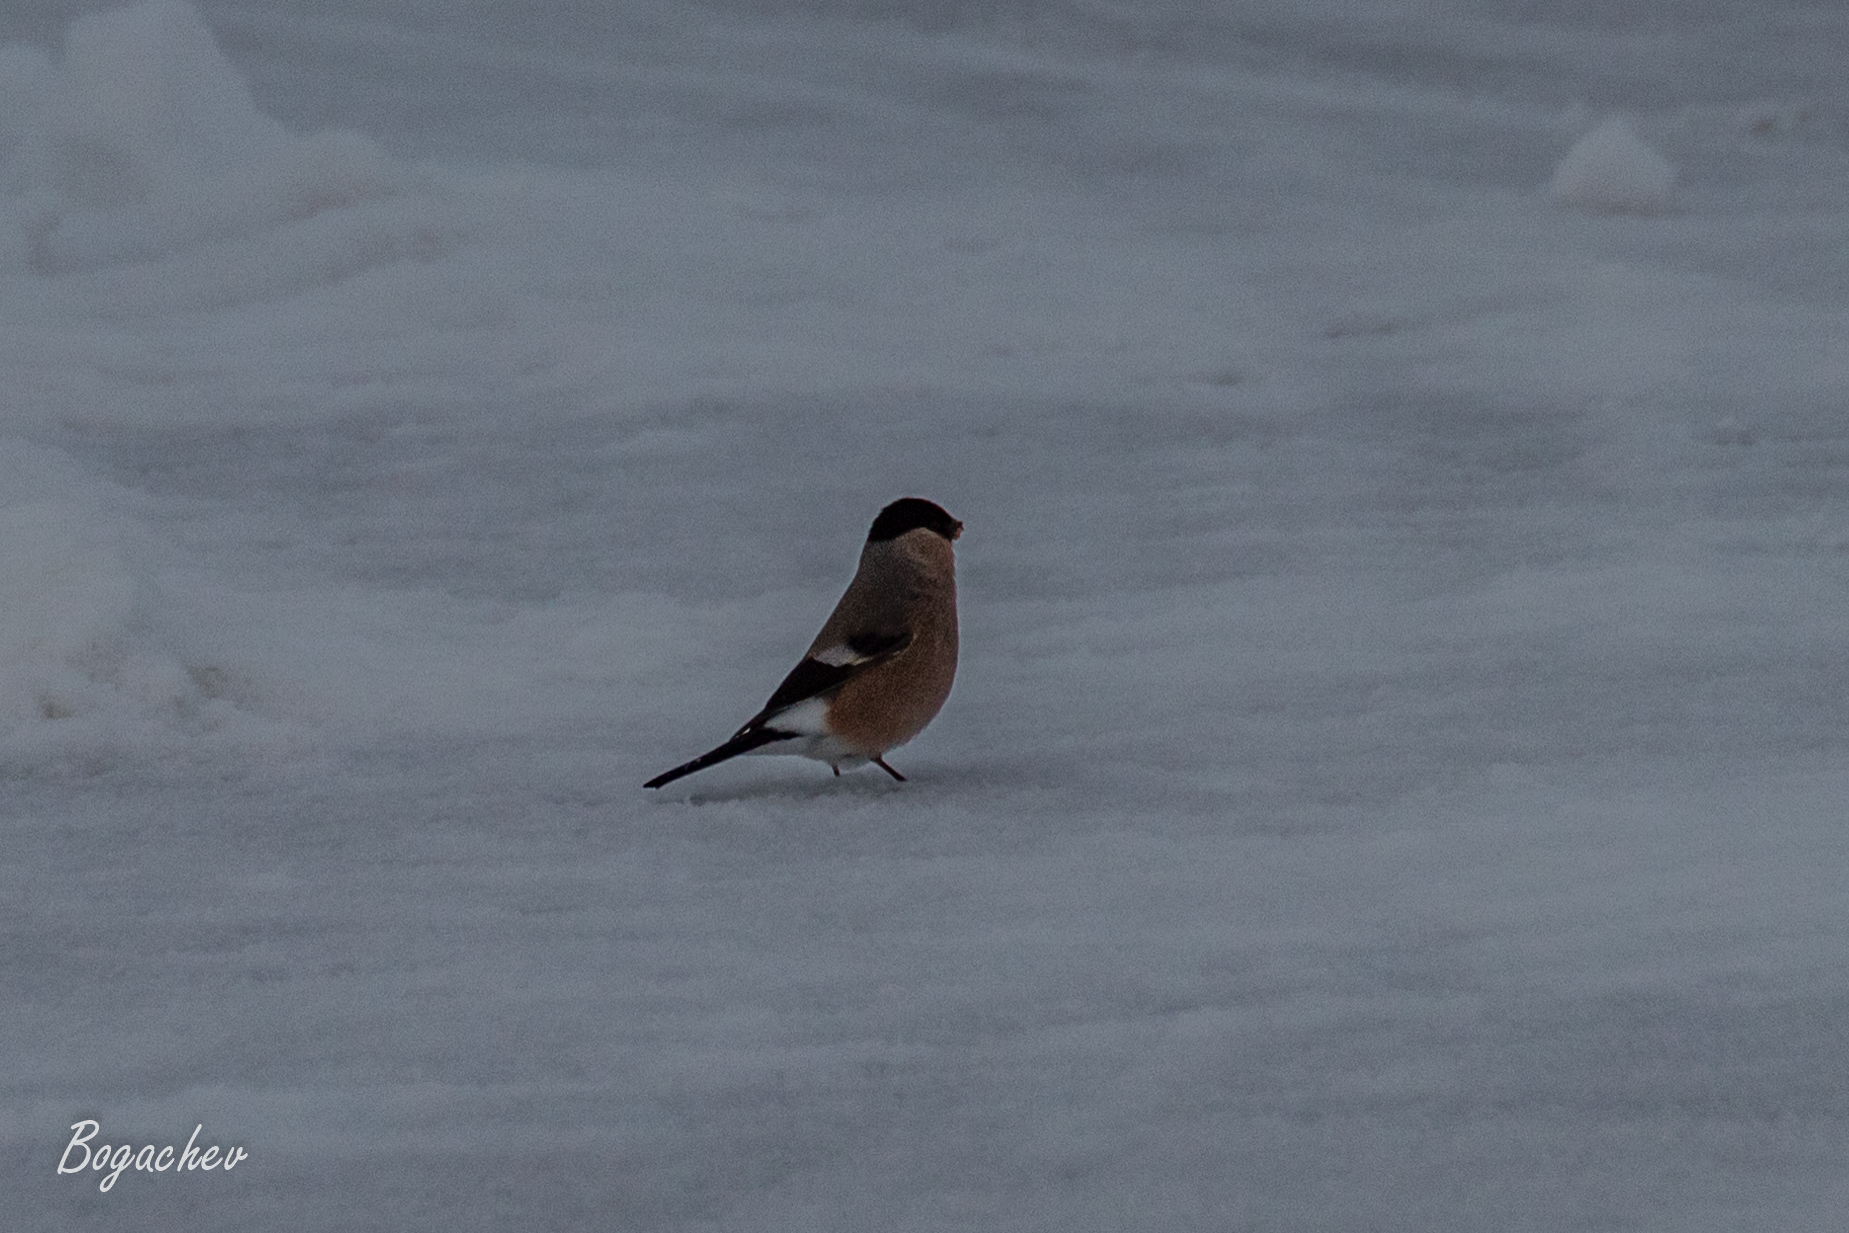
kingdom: Animalia
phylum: Chordata
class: Aves
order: Passeriformes
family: Fringillidae
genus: Pyrrhula
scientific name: Pyrrhula pyrrhula
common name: Eurasian bullfinch
